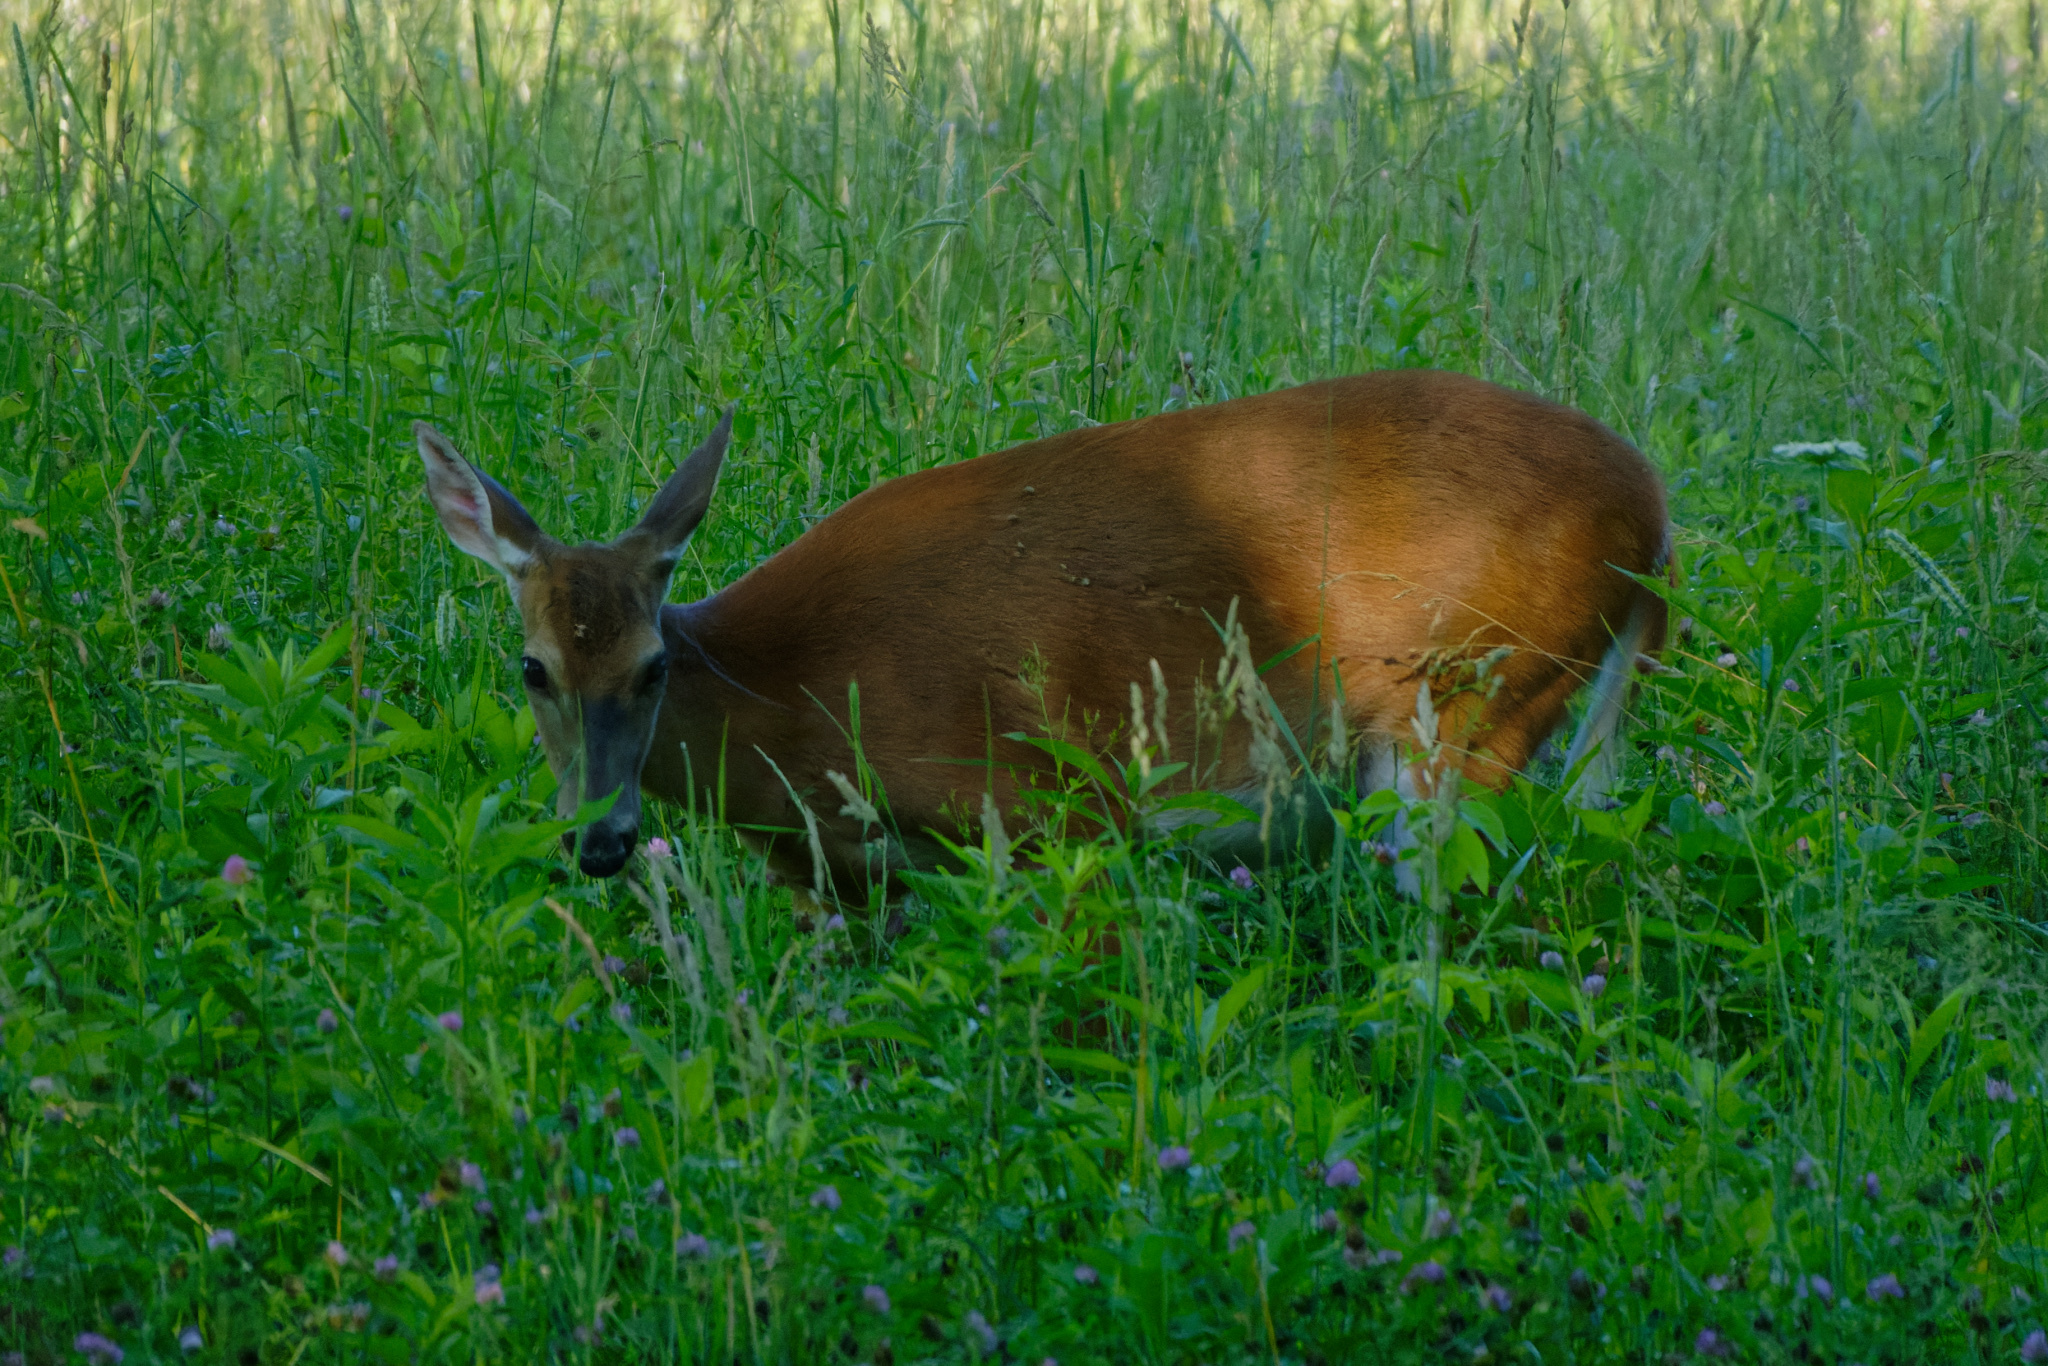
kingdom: Animalia
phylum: Chordata
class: Mammalia
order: Artiodactyla
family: Cervidae
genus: Odocoileus
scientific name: Odocoileus virginianus
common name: White-tailed deer
